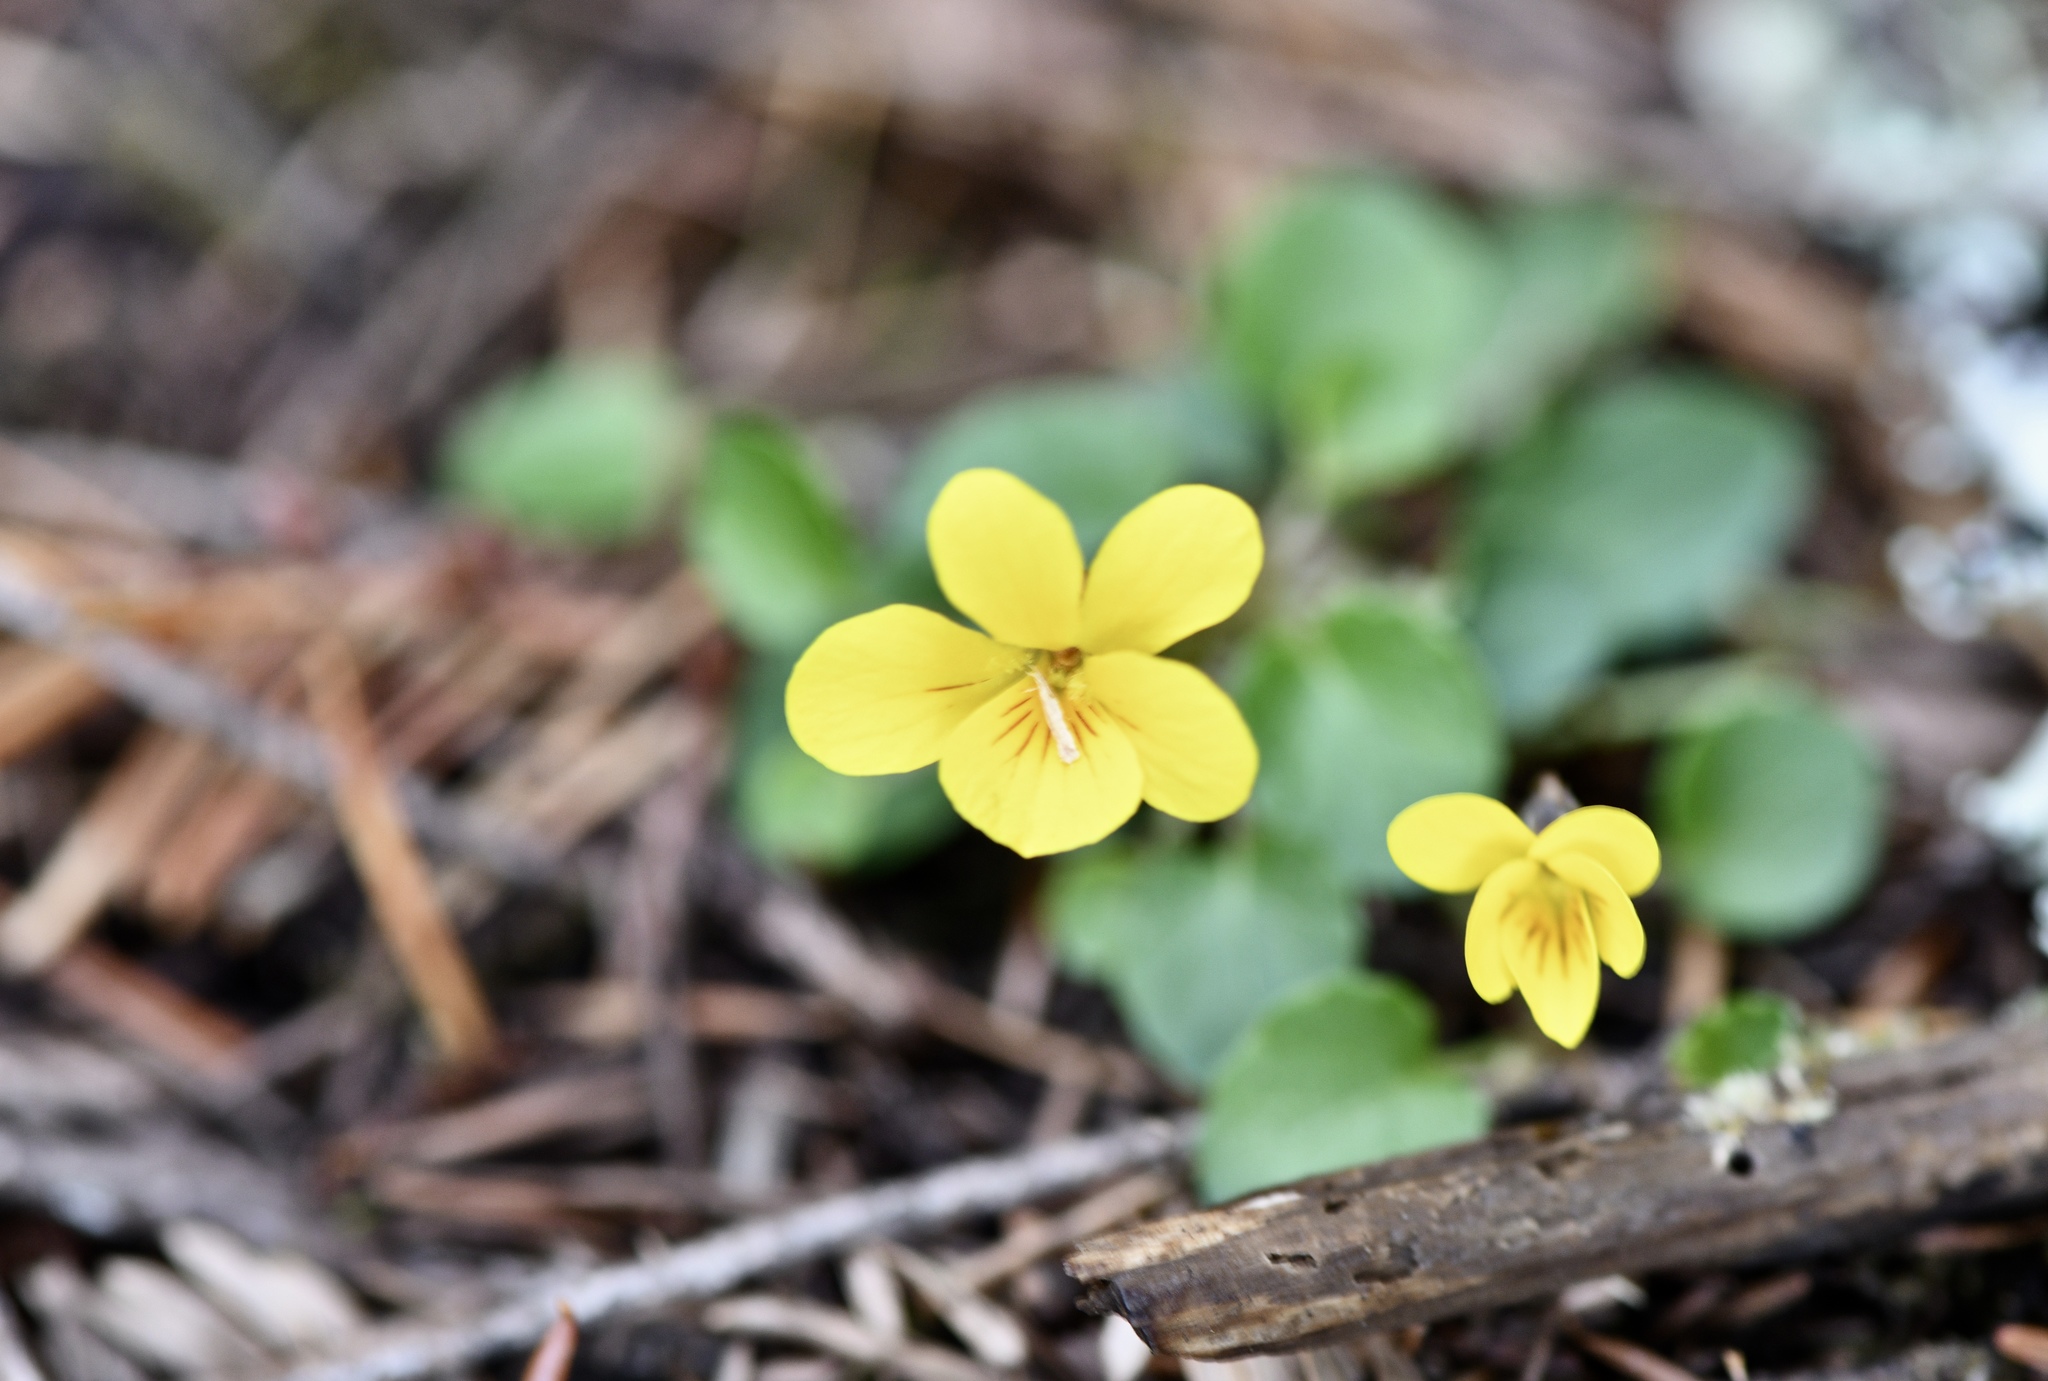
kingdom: Plantae
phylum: Tracheophyta
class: Magnoliopsida
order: Malpighiales
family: Violaceae
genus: Viola
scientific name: Viola sempervirens
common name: Evergreen violet
